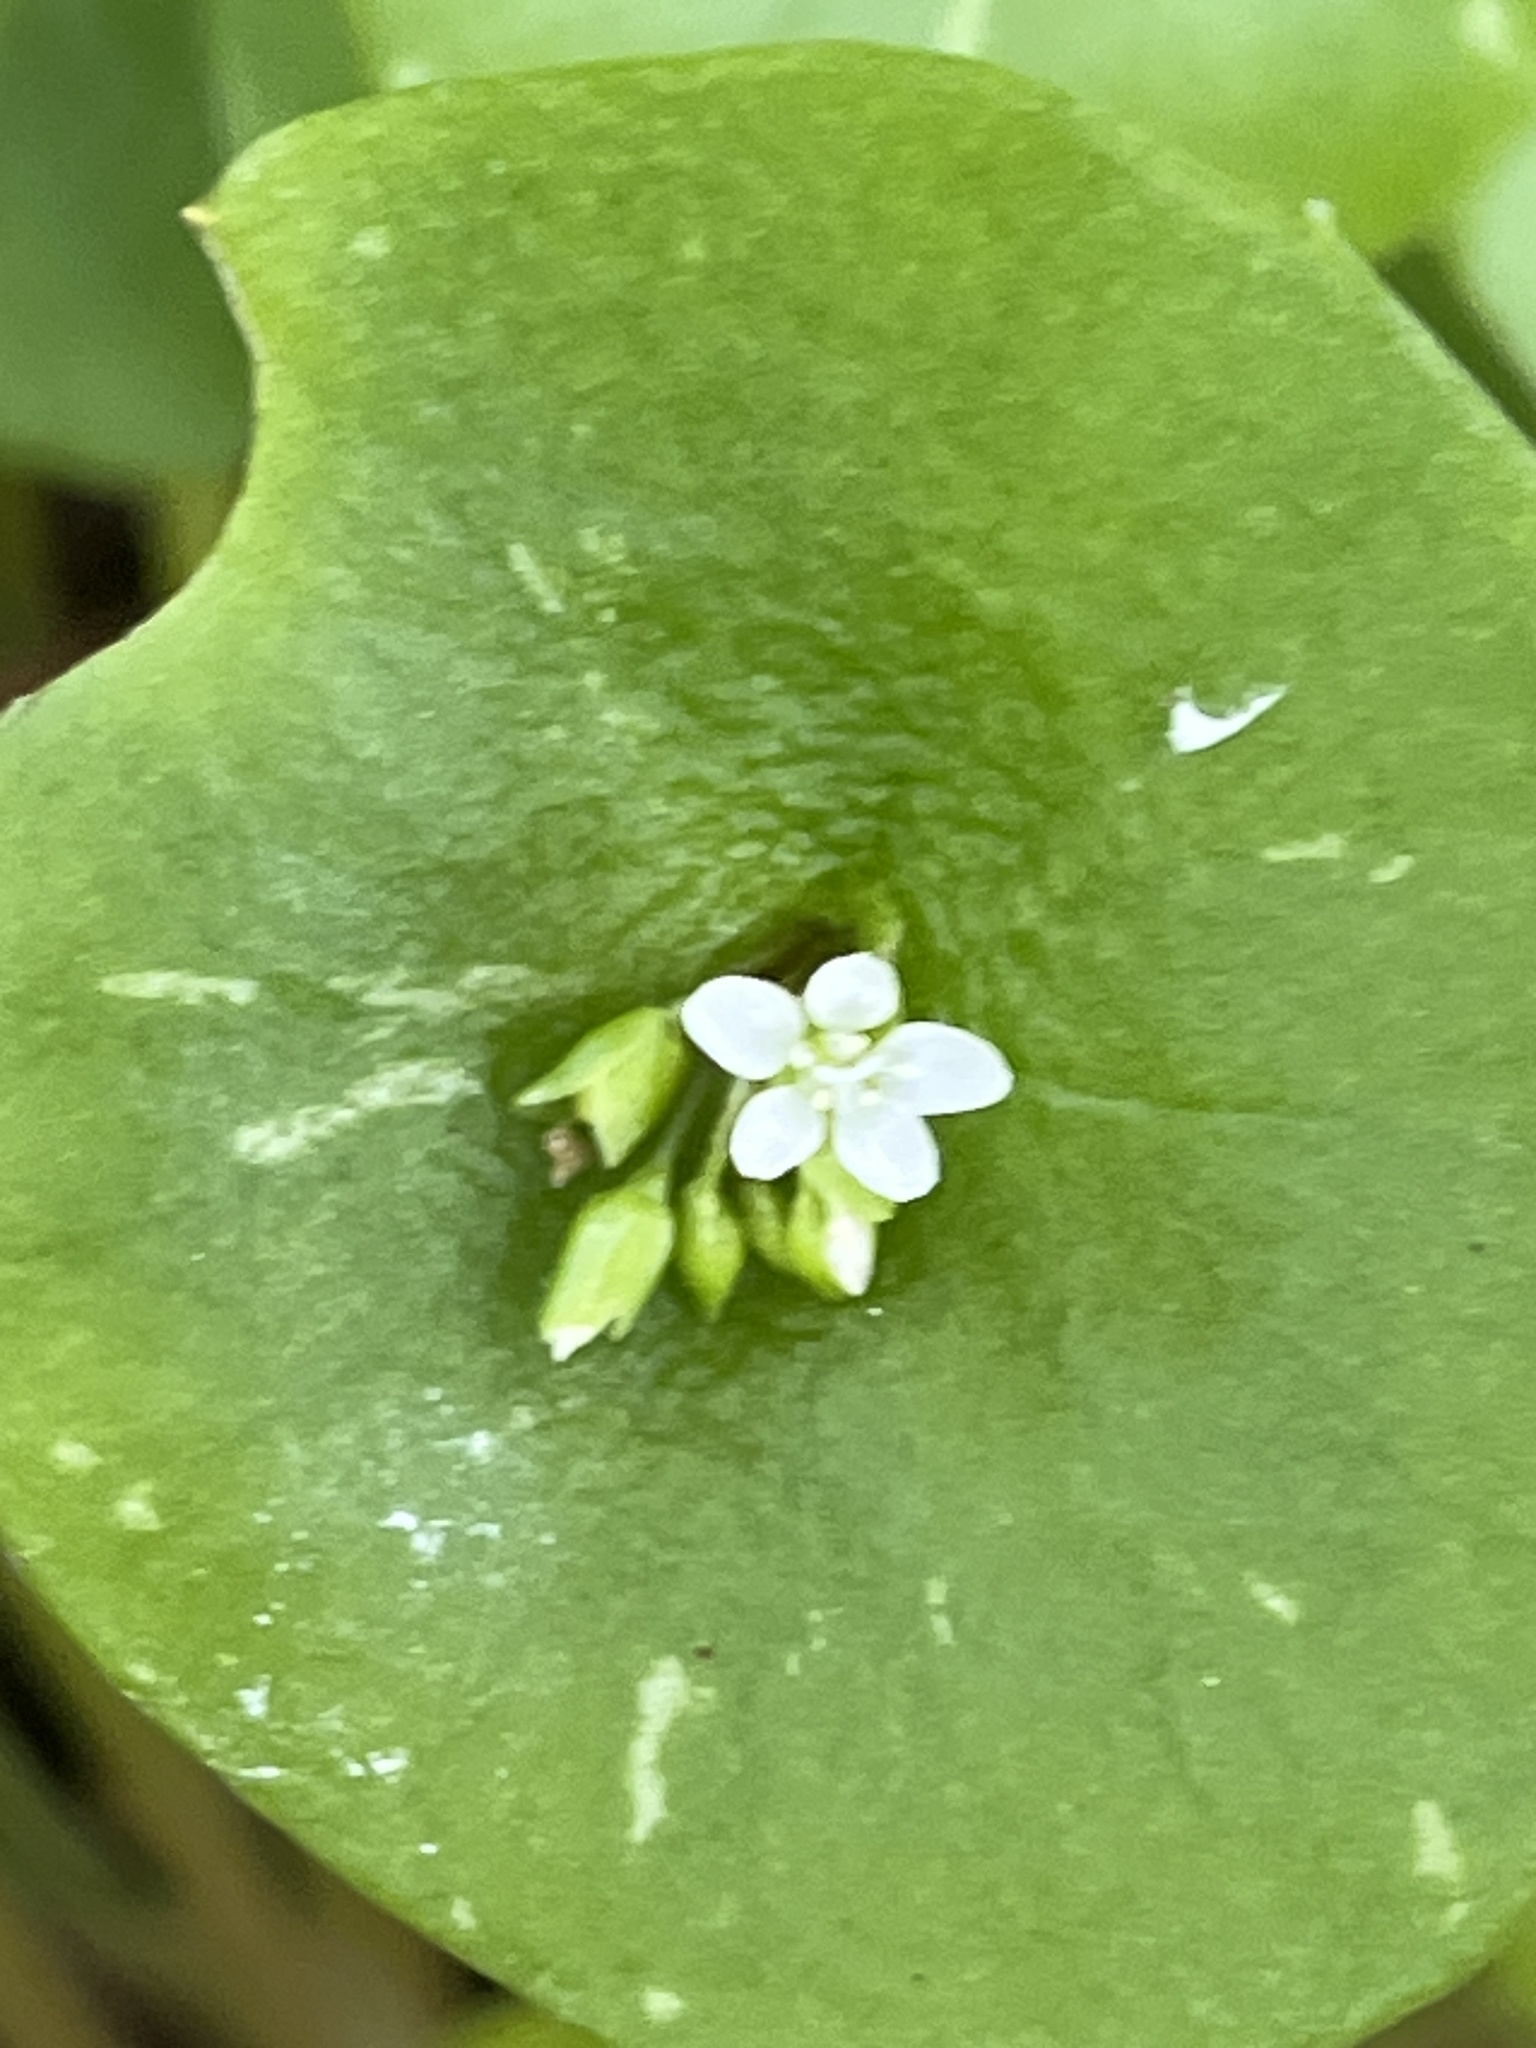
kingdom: Plantae
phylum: Tracheophyta
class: Magnoliopsida
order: Caryophyllales
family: Montiaceae
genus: Claytonia
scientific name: Claytonia perfoliata
